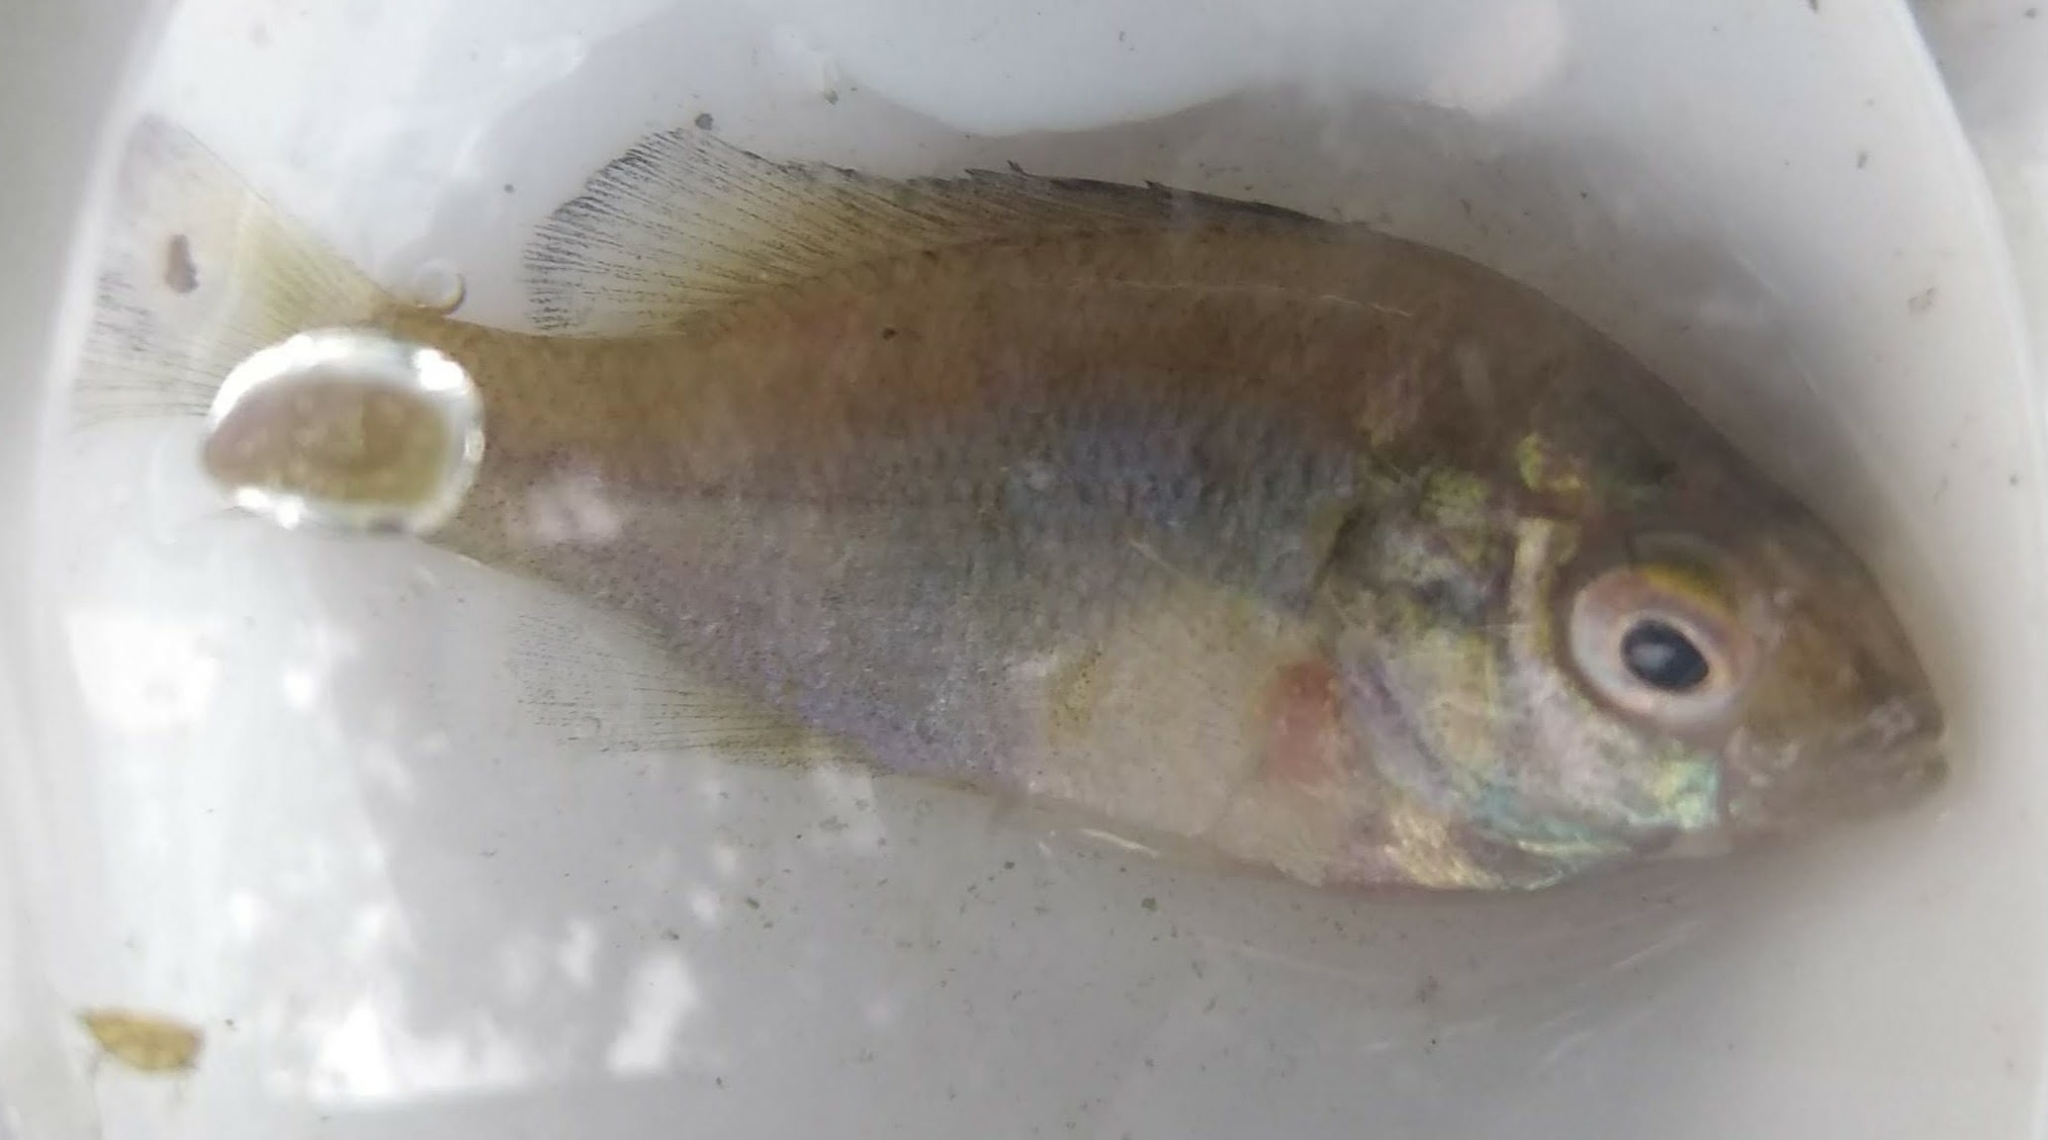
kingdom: Animalia
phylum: Chordata
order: Perciformes
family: Centrarchidae
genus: Lepomis
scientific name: Lepomis macrochirus
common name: Bluegill
